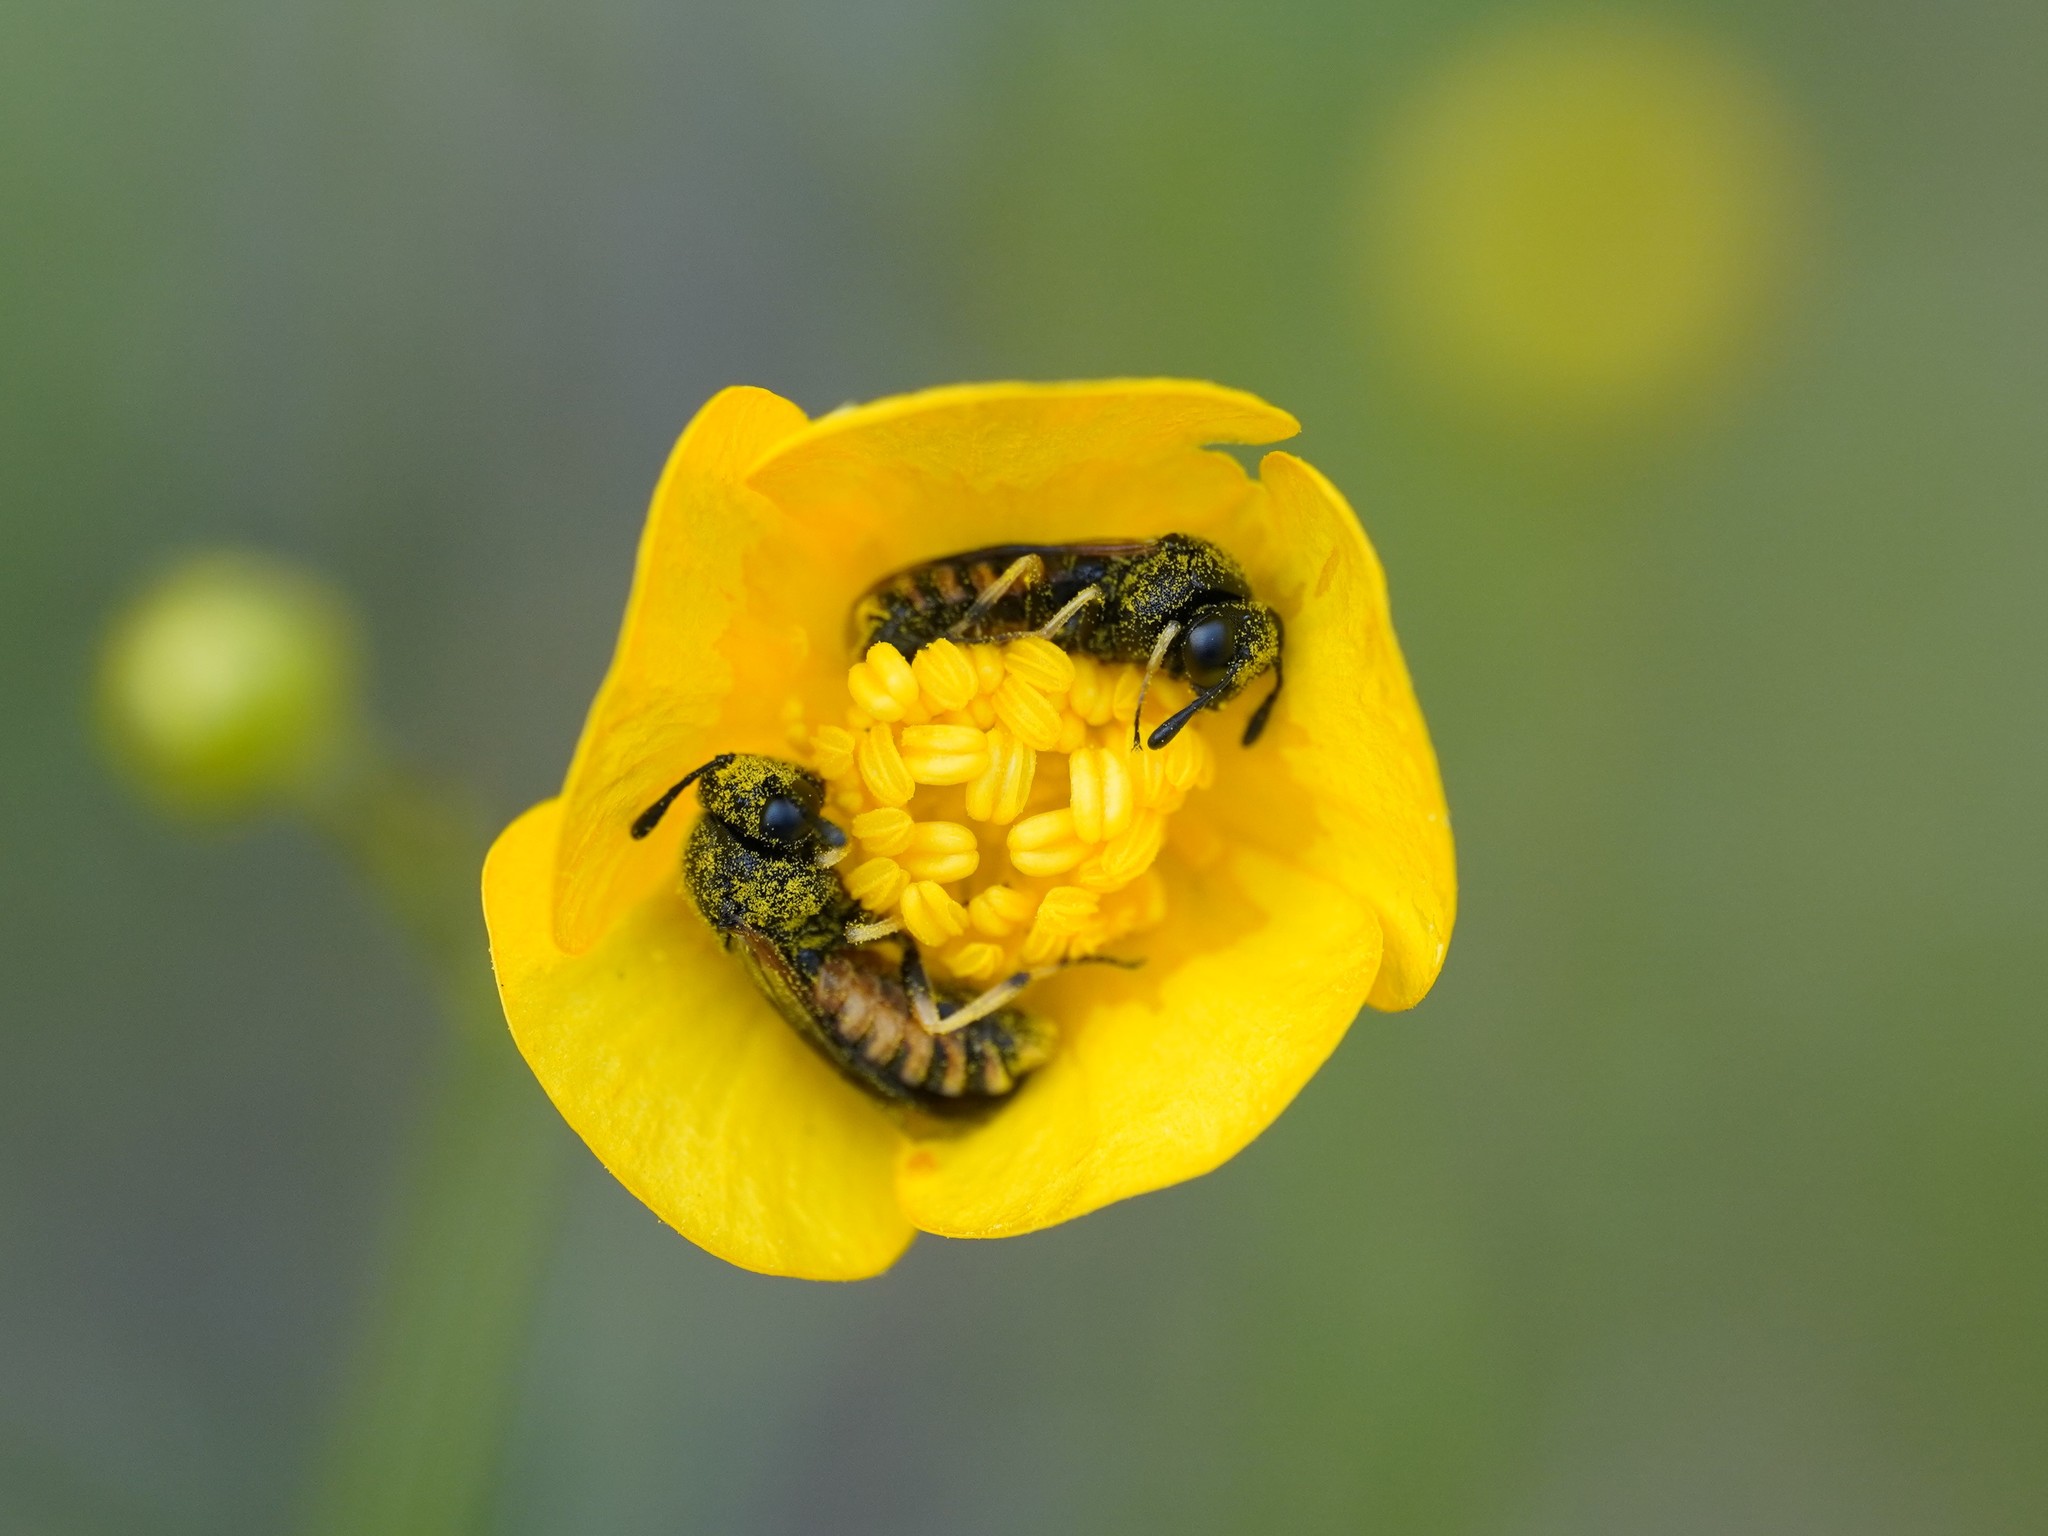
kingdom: Animalia
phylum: Arthropoda
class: Insecta
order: Hymenoptera
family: Cimbicidae
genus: Corynis
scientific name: Corynis crassicornis
